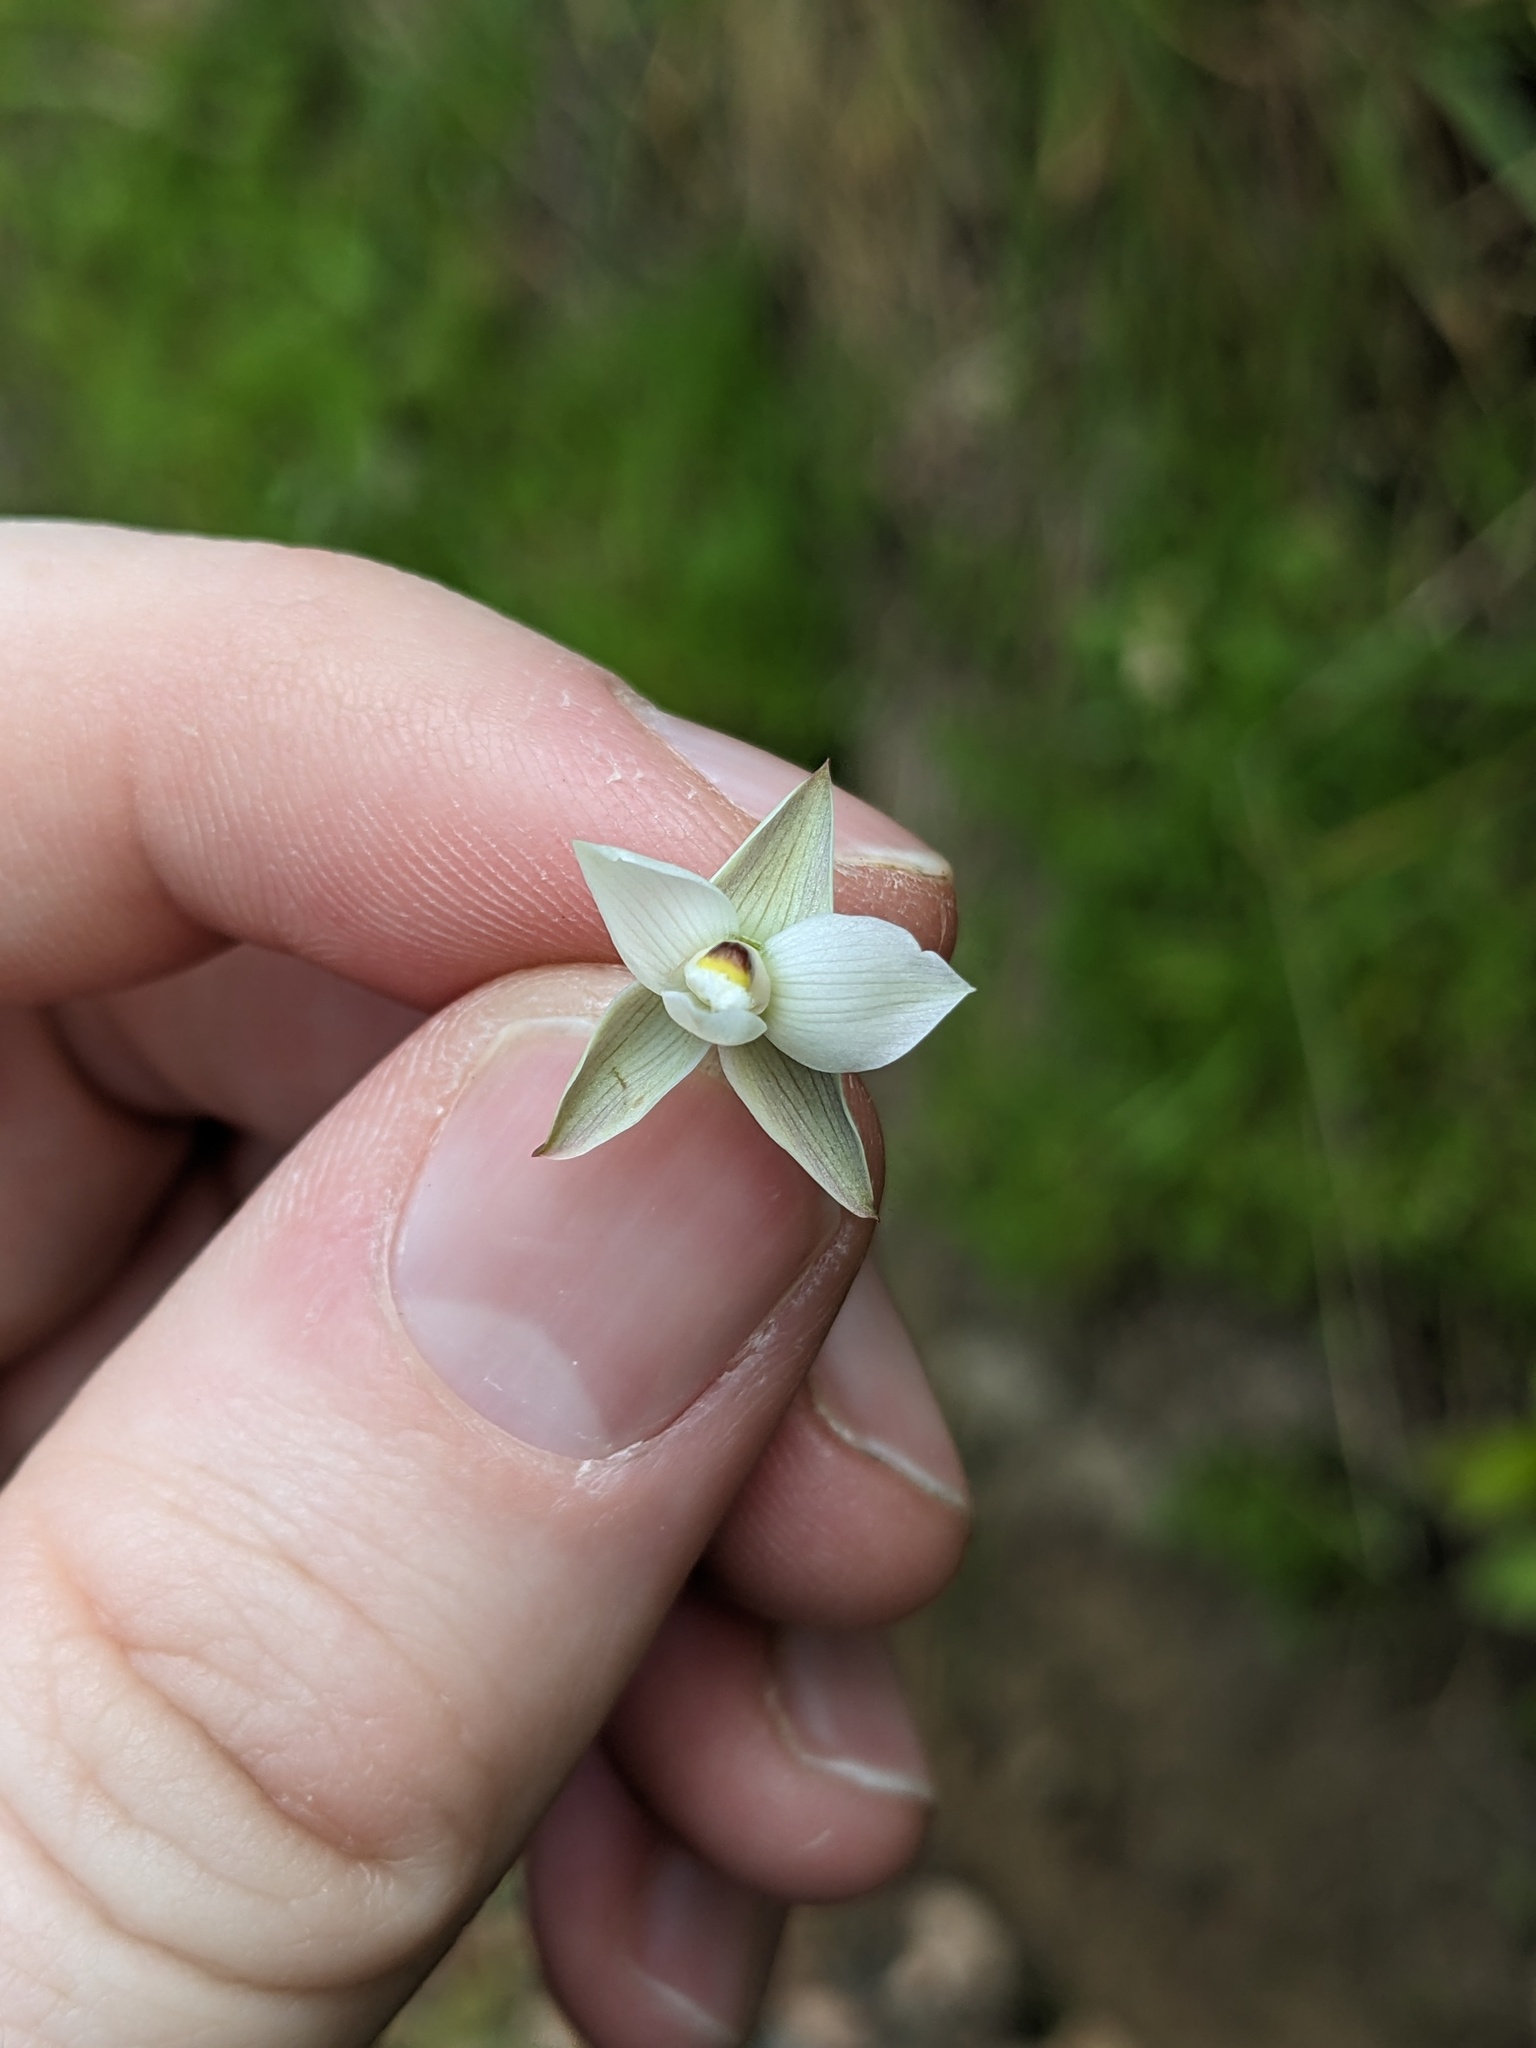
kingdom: Plantae
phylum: Tracheophyta
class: Liliopsida
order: Asparagales
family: Orchidaceae
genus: Thelymitra
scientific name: Thelymitra longifolia
